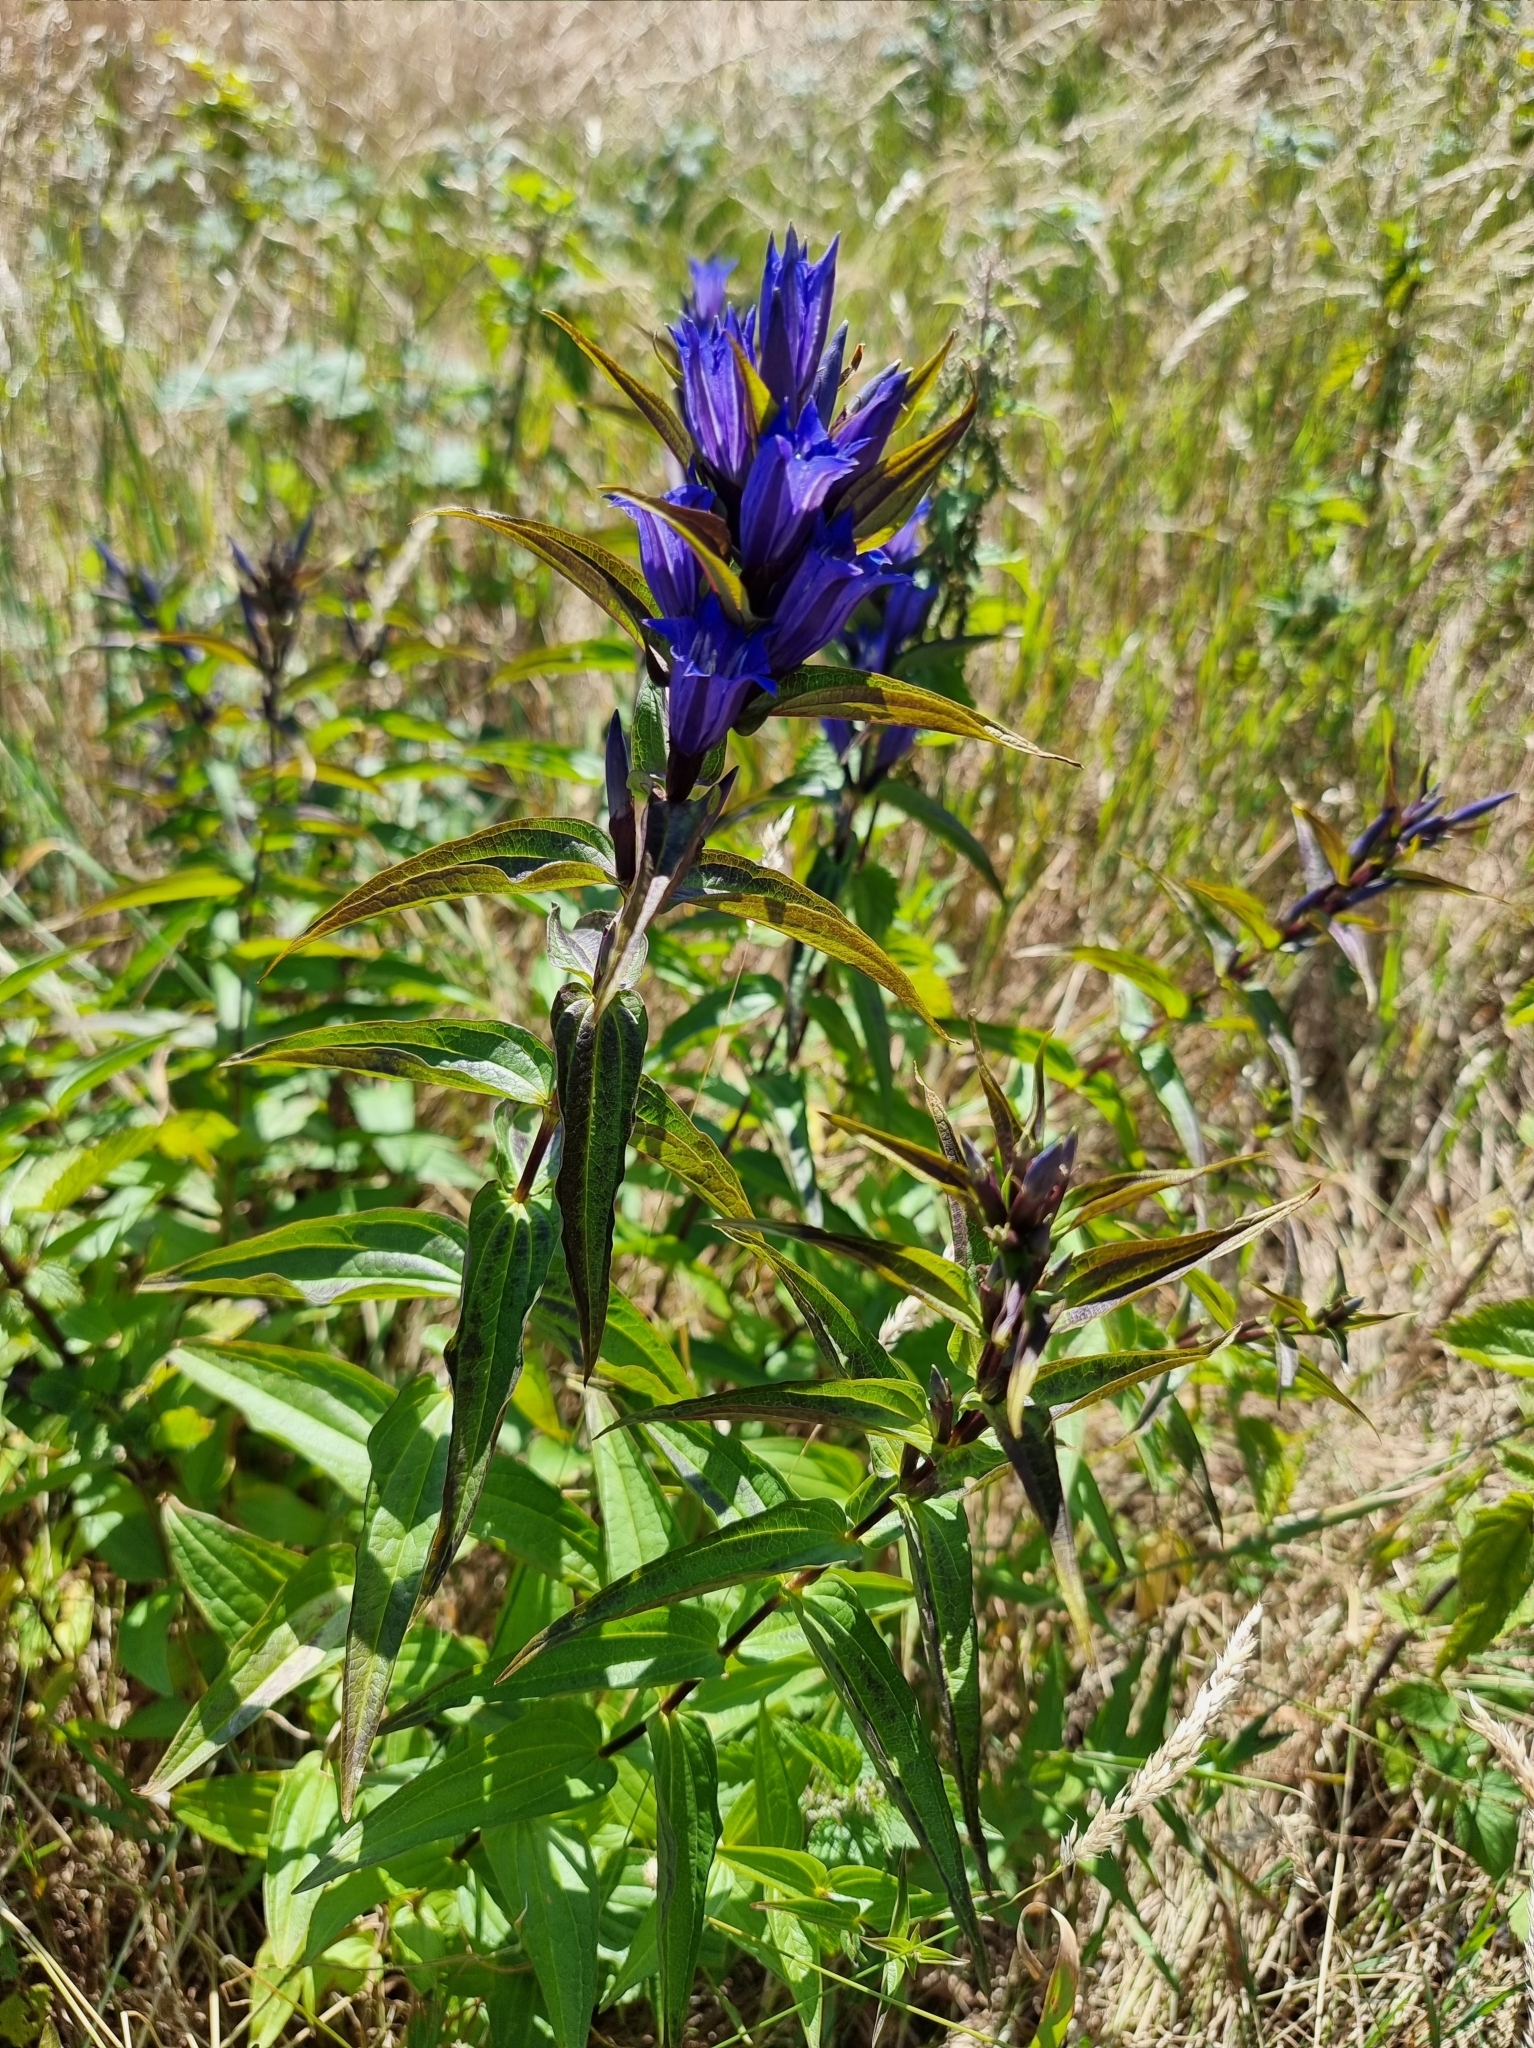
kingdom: Plantae
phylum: Tracheophyta
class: Magnoliopsida
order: Gentianales
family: Gentianaceae
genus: Gentiana
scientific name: Gentiana asclepiadea
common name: Willow gentian
